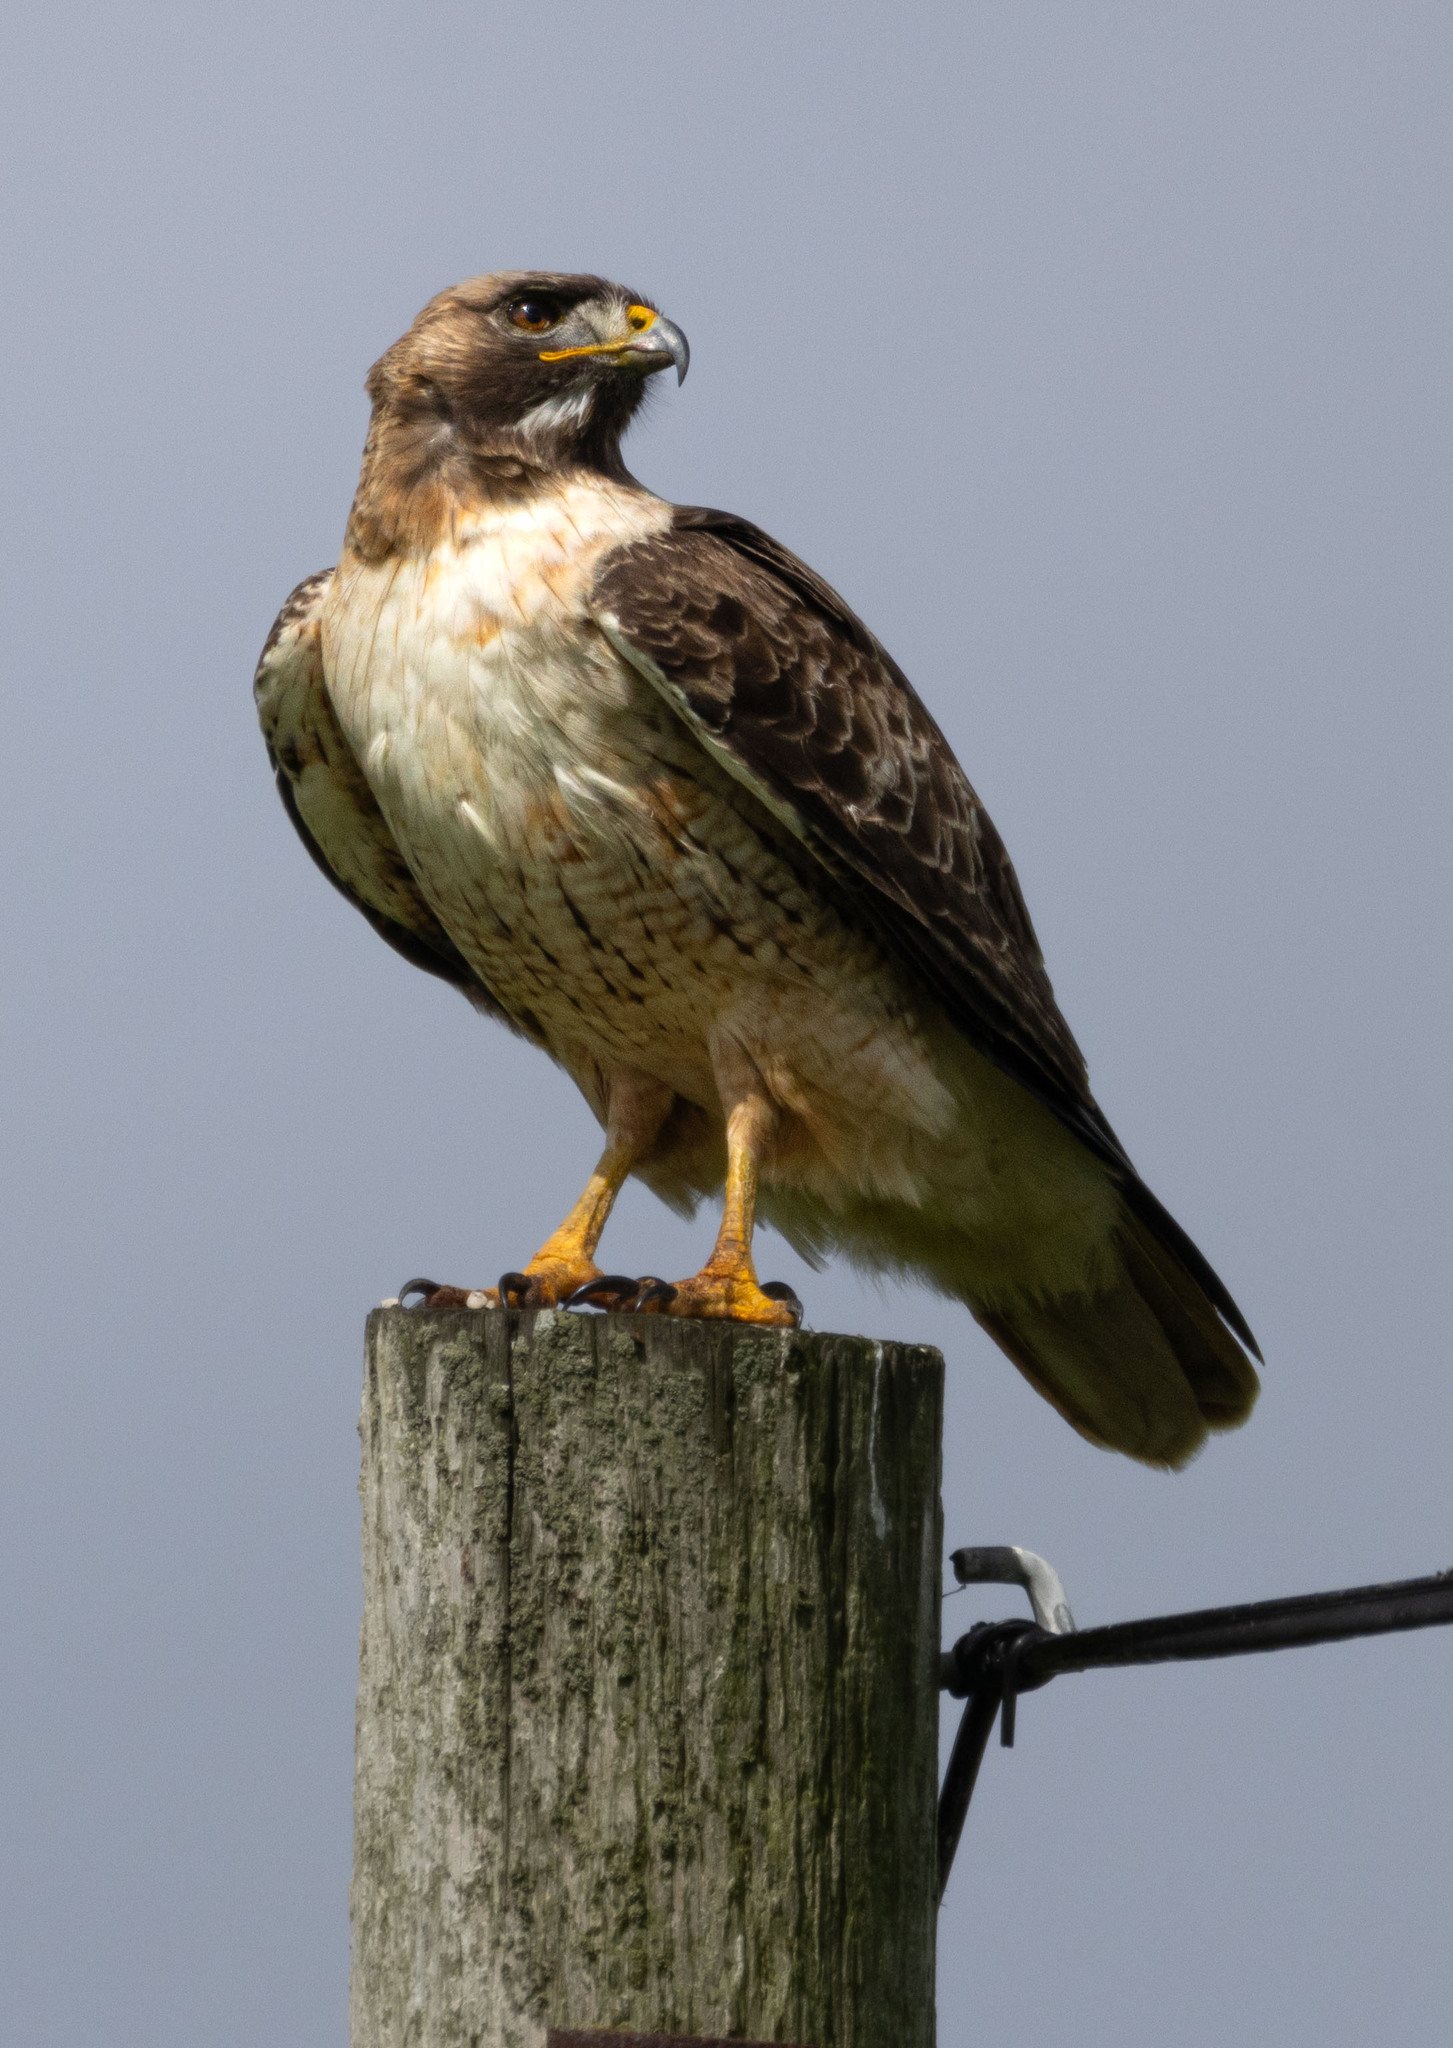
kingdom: Animalia
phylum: Chordata
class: Aves
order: Accipitriformes
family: Accipitridae
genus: Buteo
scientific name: Buteo jamaicensis
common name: Red-tailed hawk
